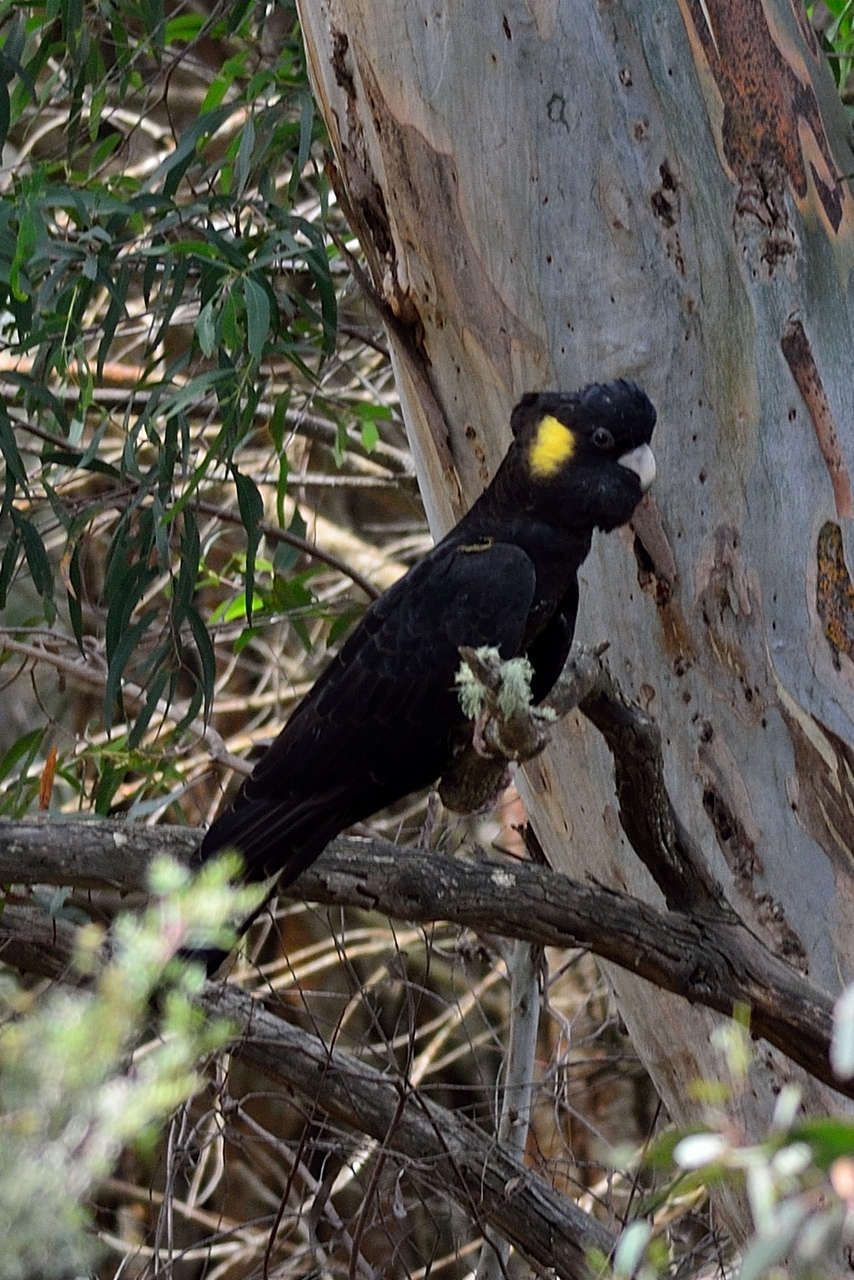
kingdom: Animalia
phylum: Chordata
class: Aves
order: Psittaciformes
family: Cacatuidae
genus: Zanda
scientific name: Zanda funerea
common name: Yellow-tailed black-cockatoo
